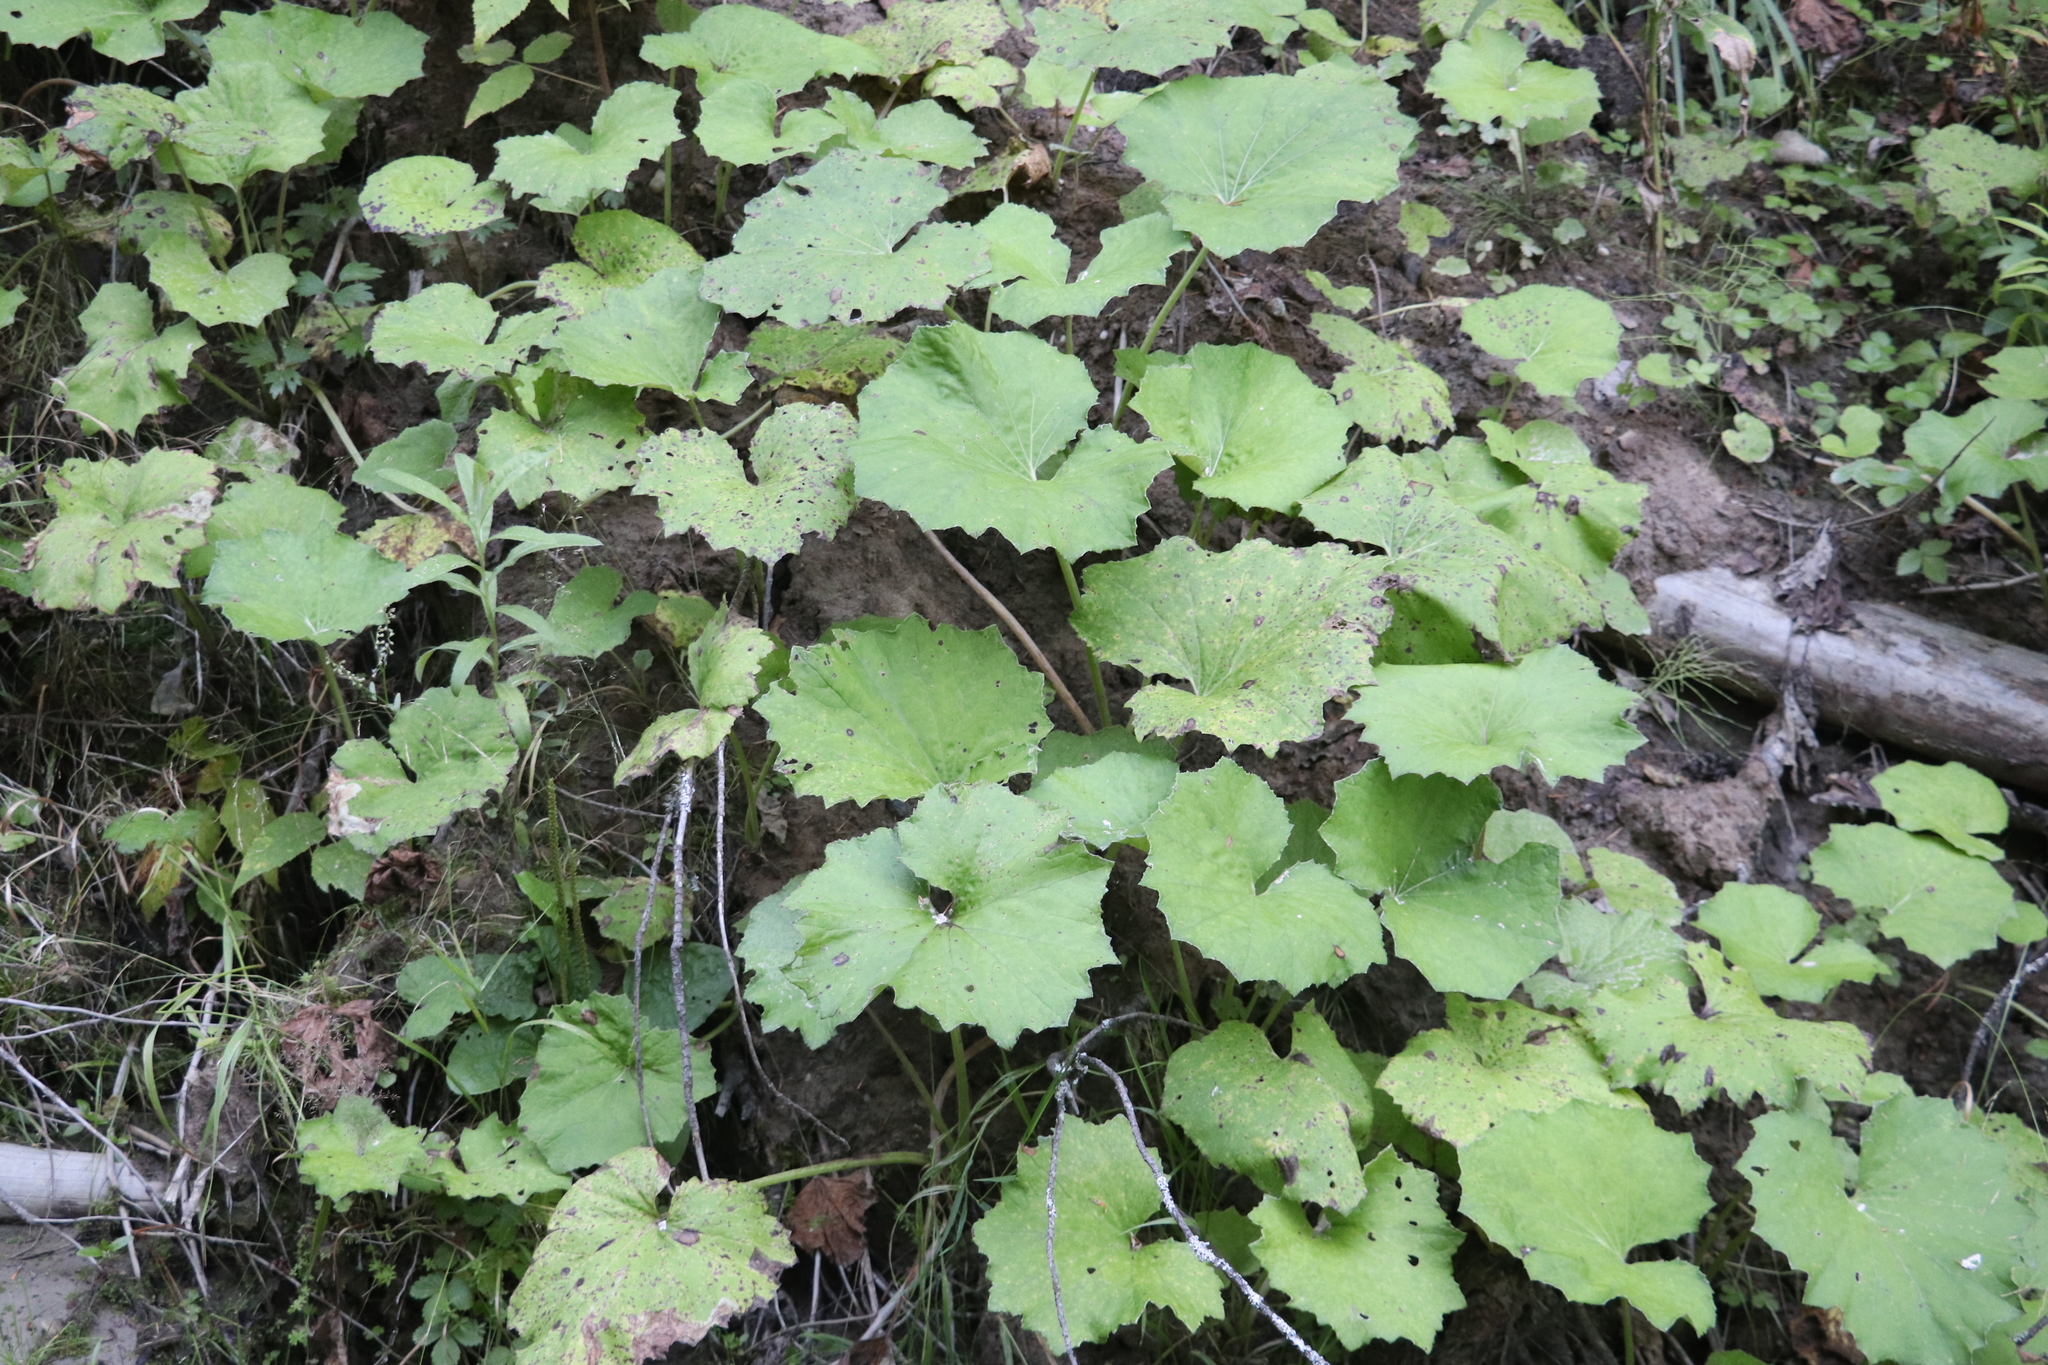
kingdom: Plantae
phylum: Tracheophyta
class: Magnoliopsida
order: Asterales
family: Asteraceae
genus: Tussilago
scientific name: Tussilago farfara
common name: Coltsfoot
